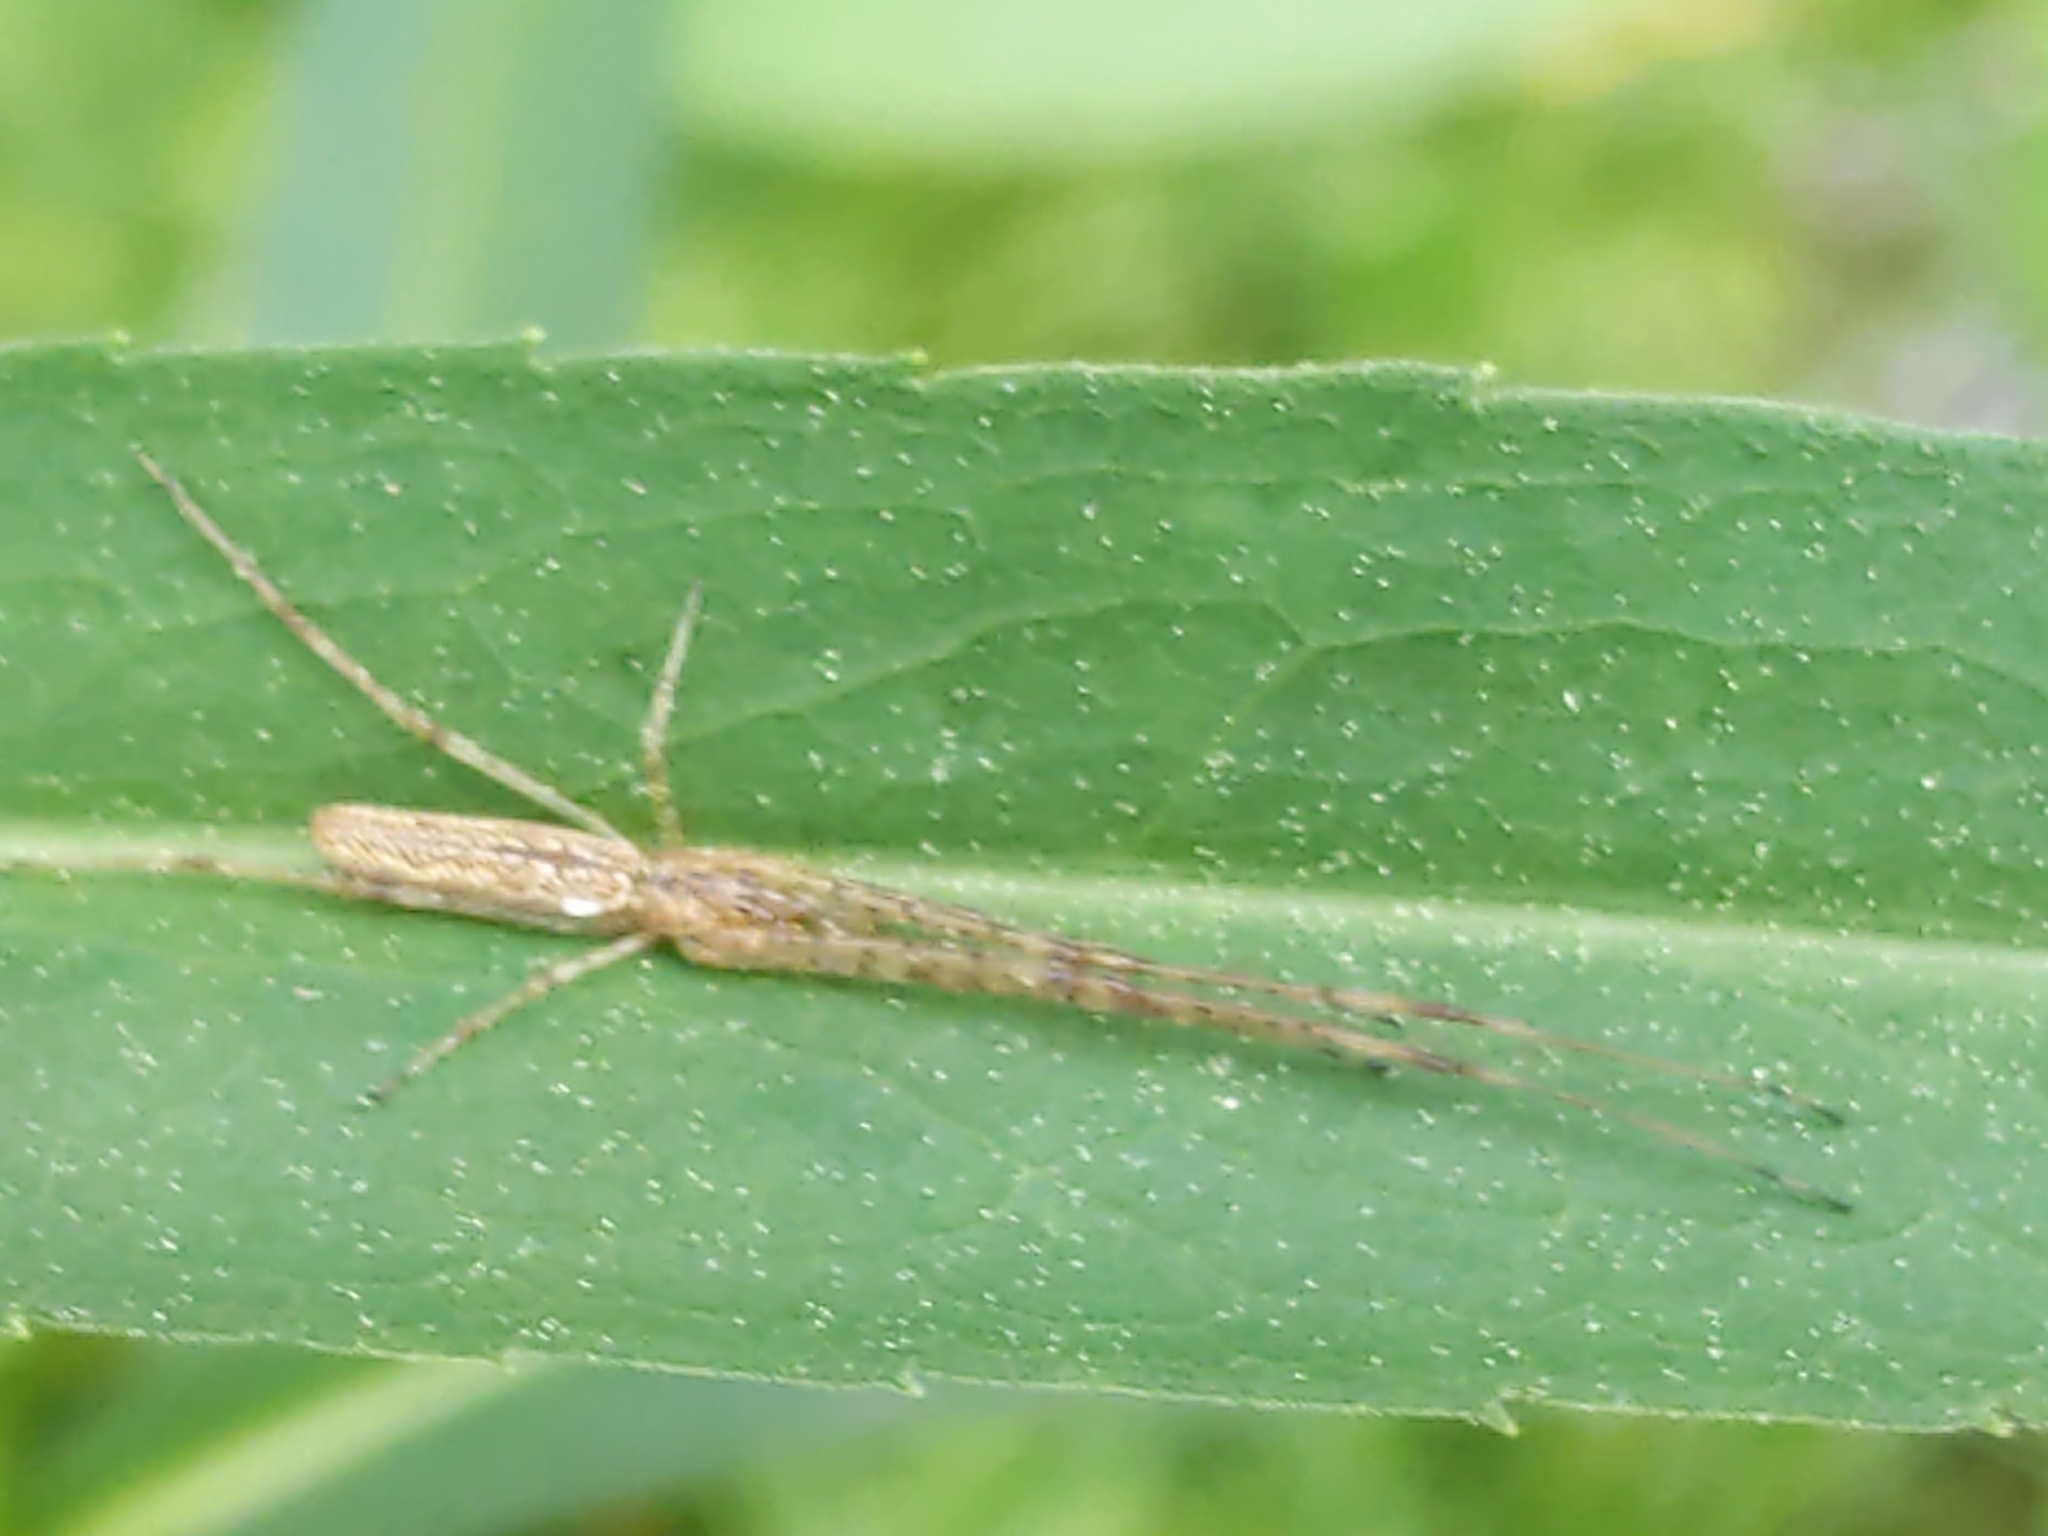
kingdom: Animalia
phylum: Arthropoda
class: Arachnida
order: Araneae
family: Tetragnathidae
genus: Tetragnatha
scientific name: Tetragnatha
